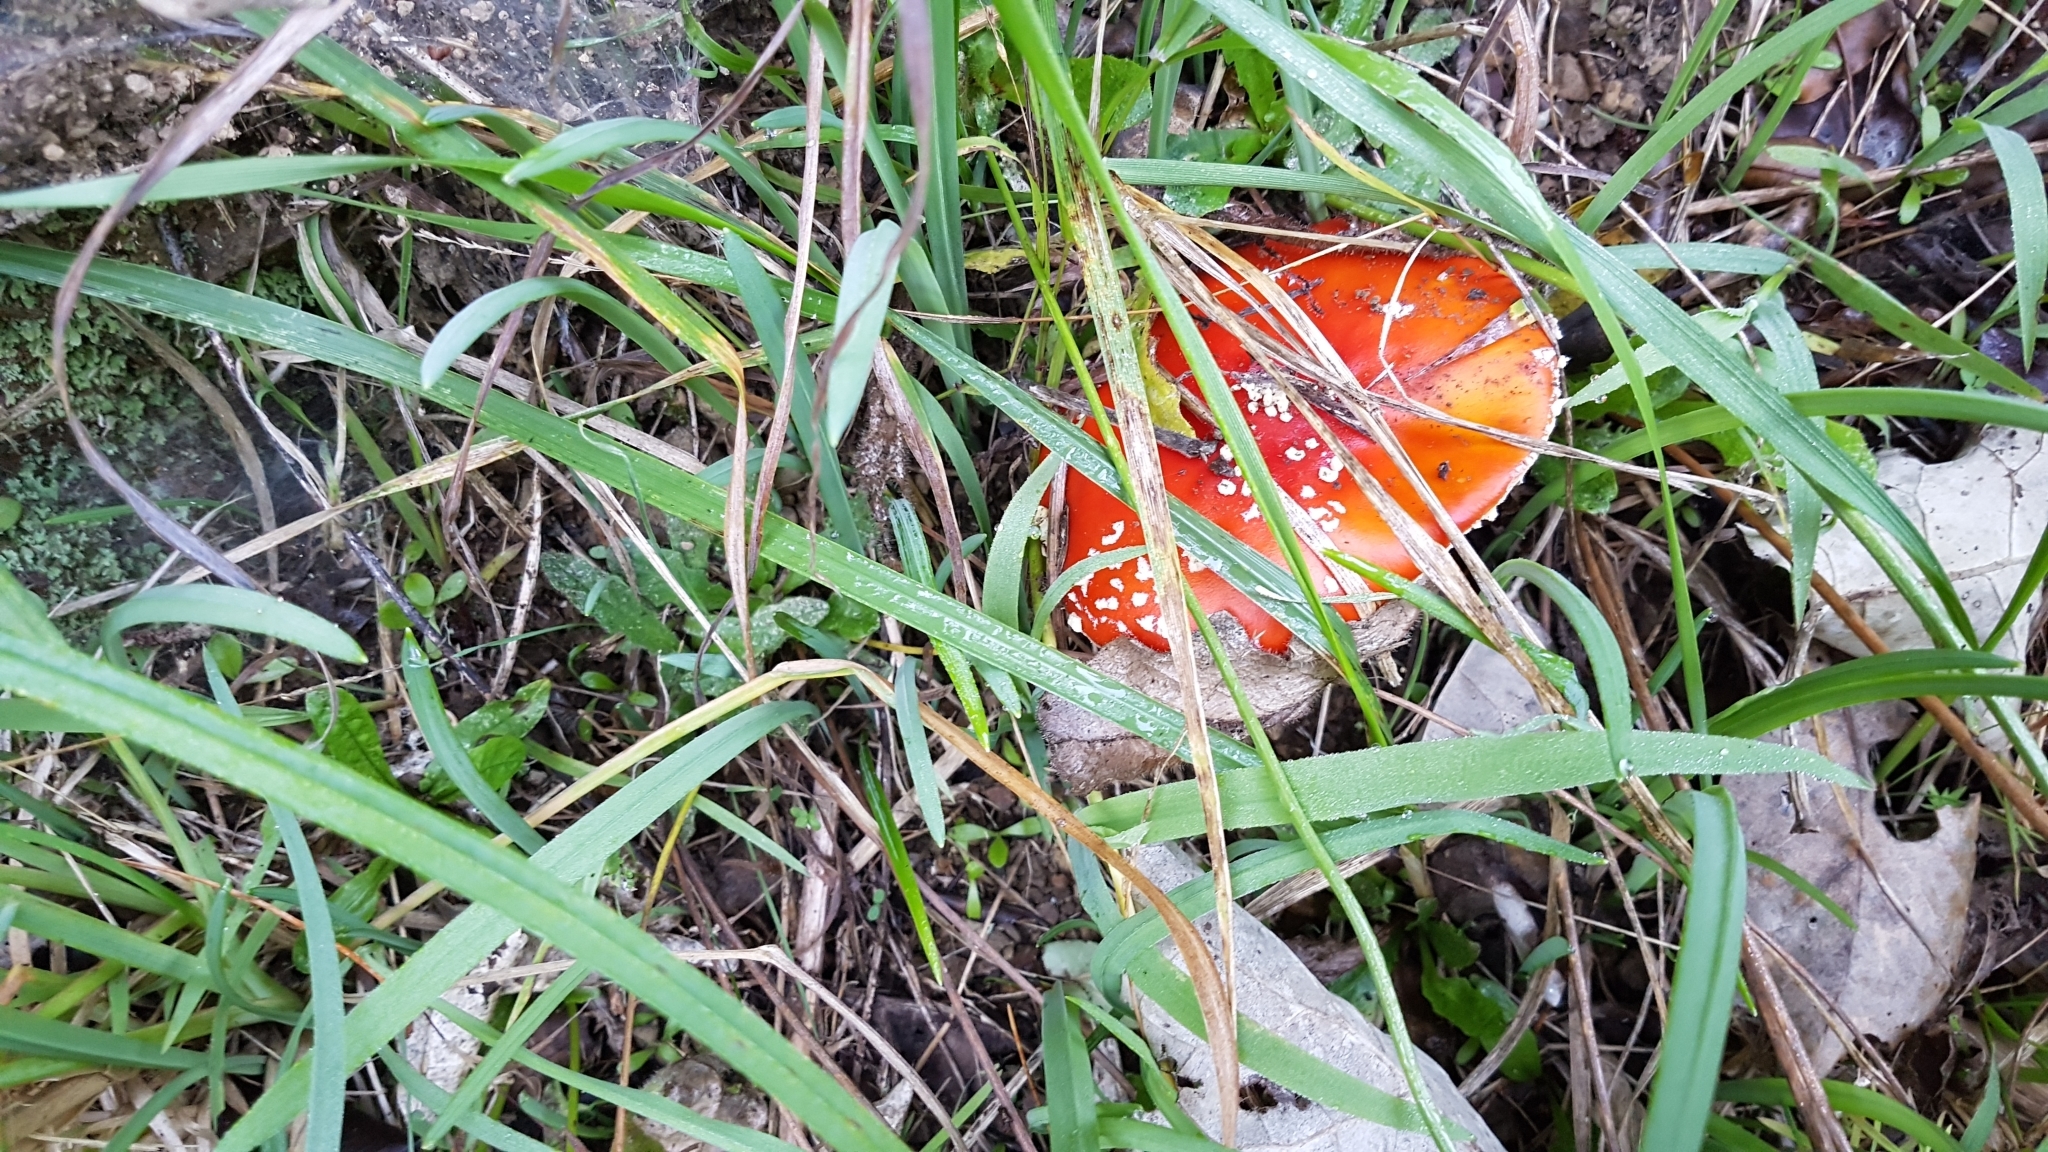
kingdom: Fungi
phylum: Basidiomycota
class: Agaricomycetes
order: Agaricales
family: Amanitaceae
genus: Amanita
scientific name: Amanita muscaria
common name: Fly agaric
